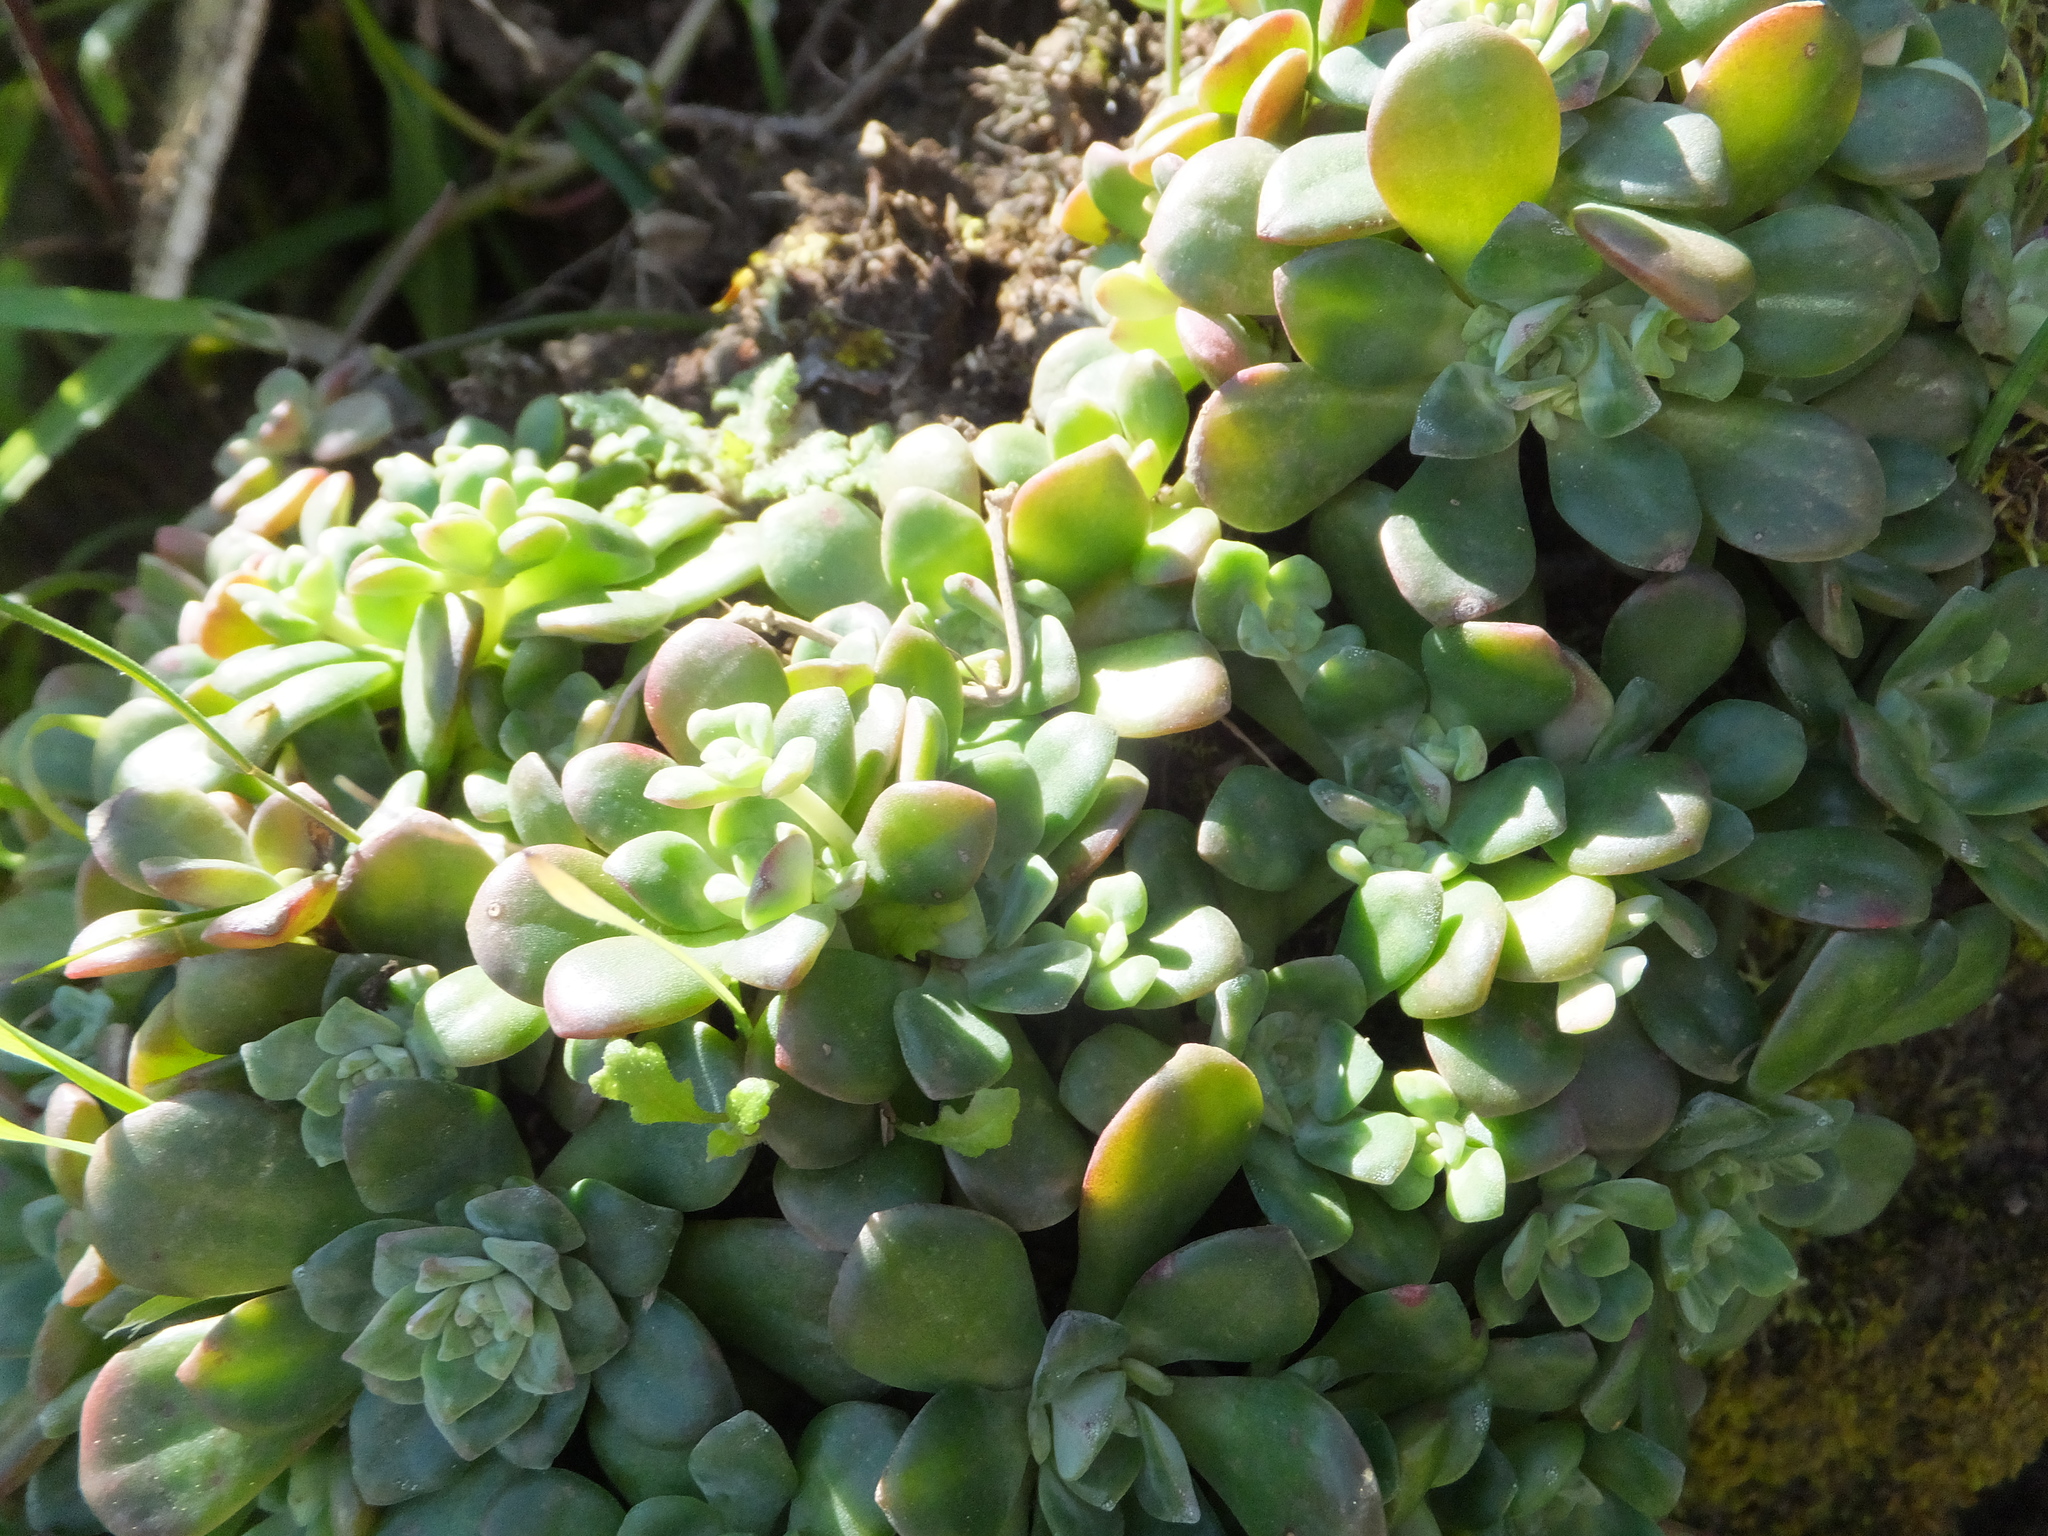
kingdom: Plantae
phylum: Tracheophyta
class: Magnoliopsida
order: Saxifragales
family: Crassulaceae
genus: Sedum
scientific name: Sedum spathulifolium
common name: Colorado stonecrop
